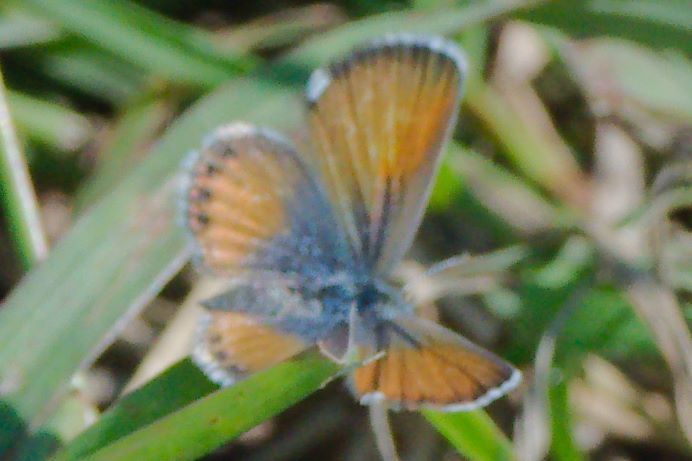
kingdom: Animalia
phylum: Arthropoda
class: Insecta
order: Lepidoptera
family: Lycaenidae
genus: Brephidium
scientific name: Brephidium exilis
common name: Pygmy blue
